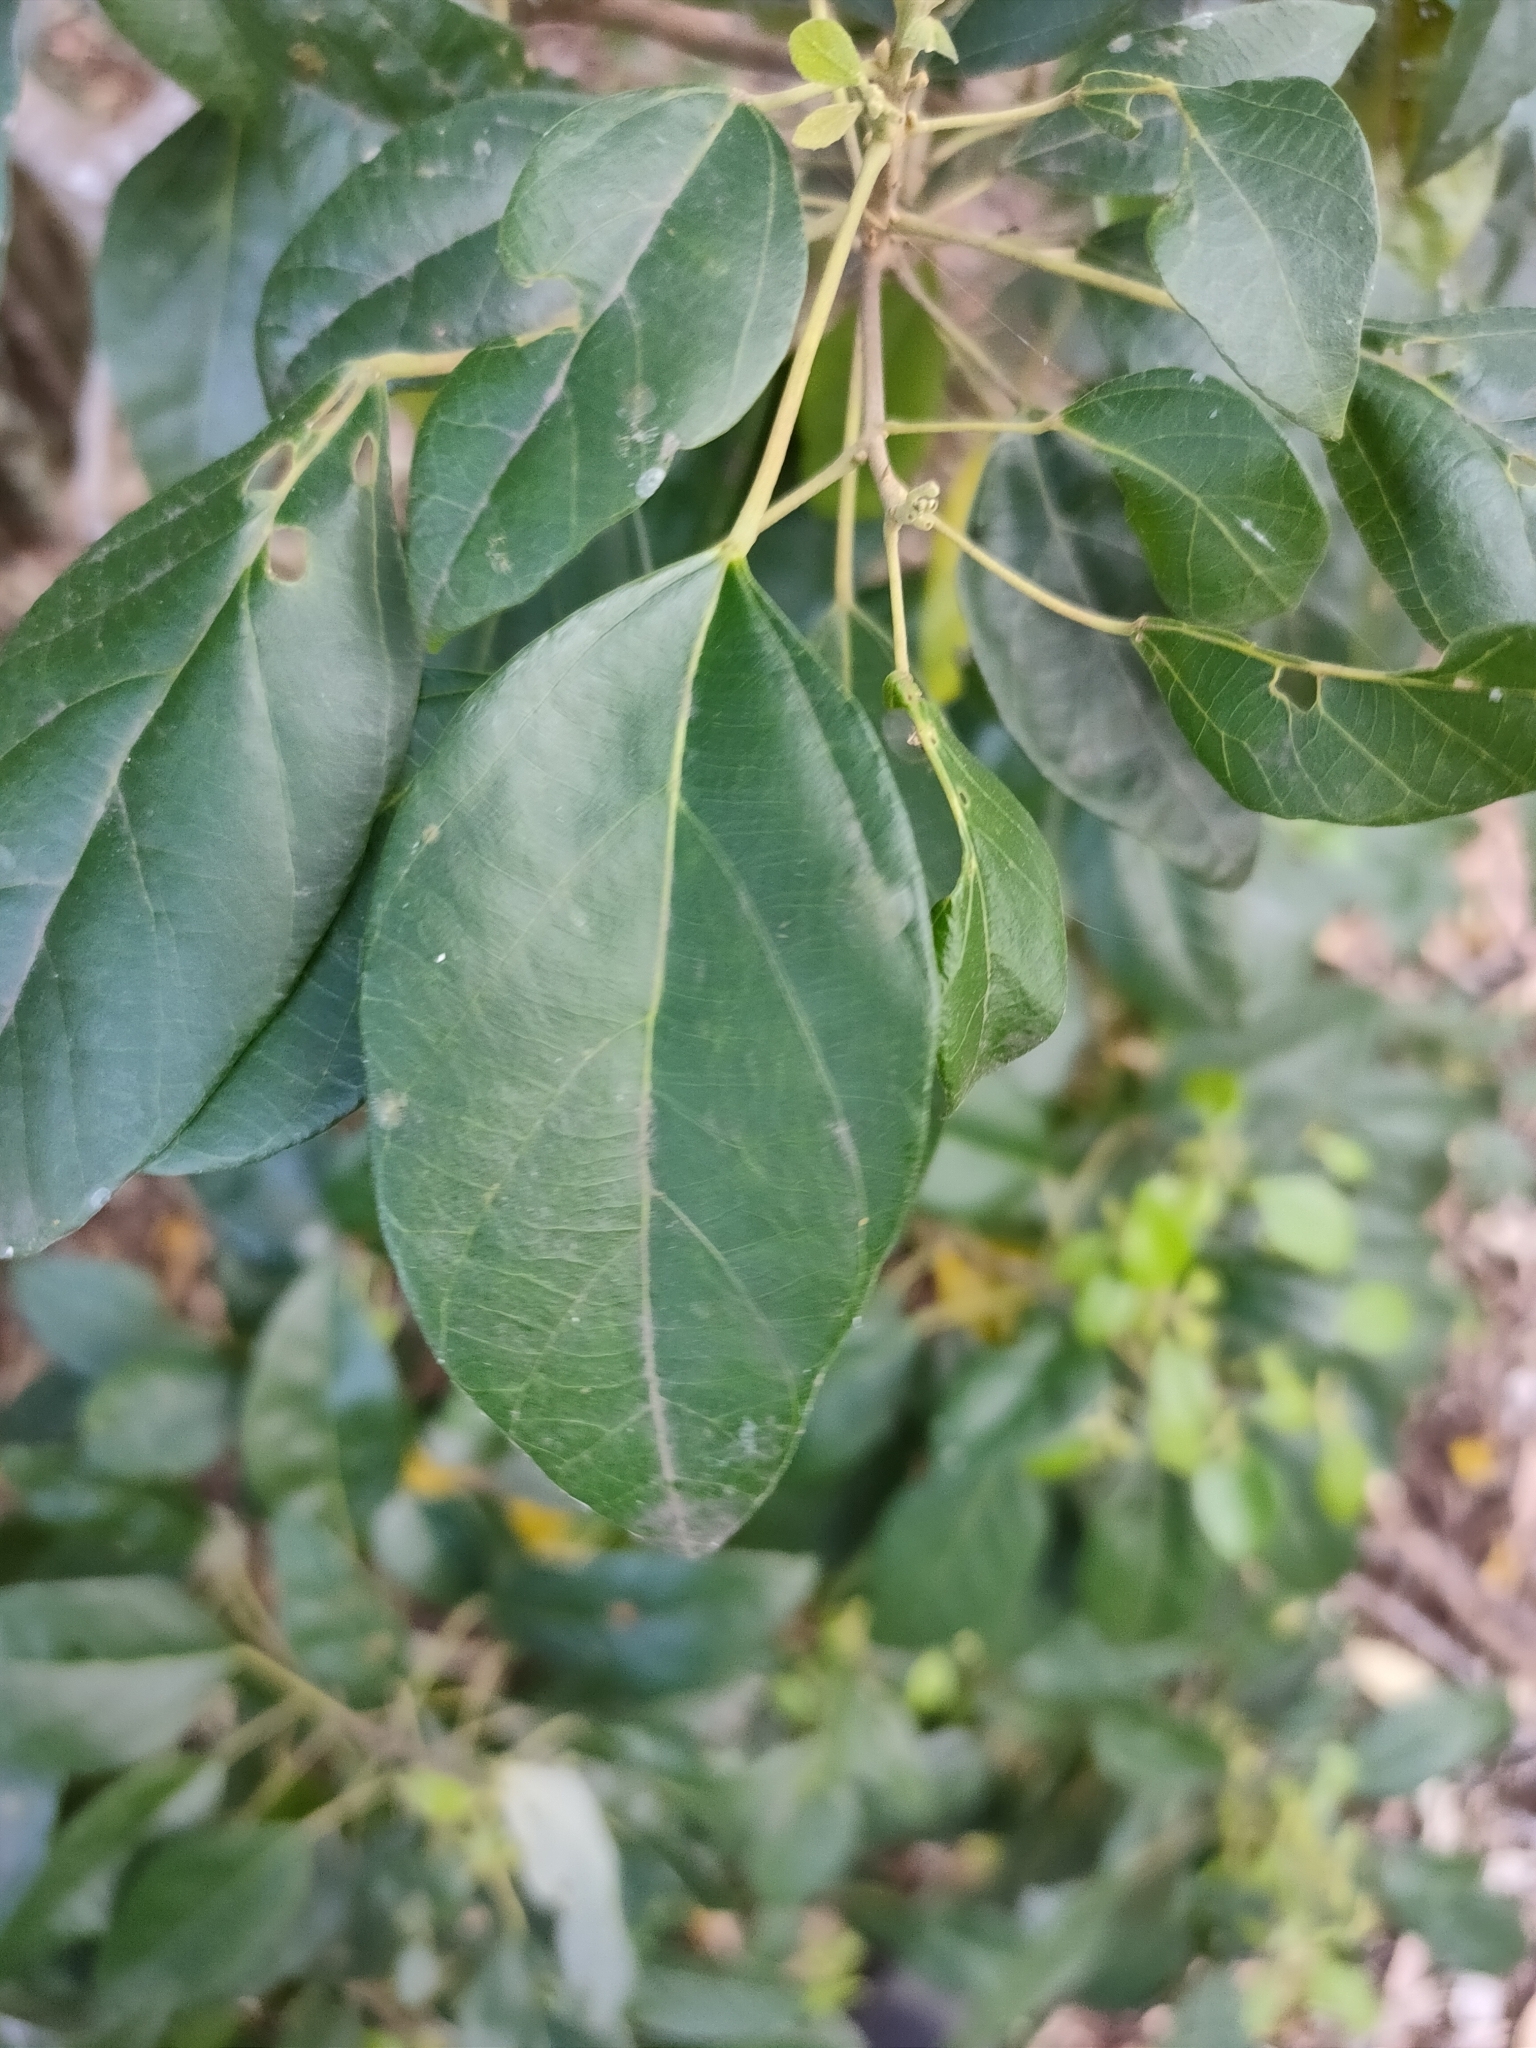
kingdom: Plantae
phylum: Tracheophyta
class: Magnoliopsida
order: Malpighiales
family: Euphorbiaceae
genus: Mallotus
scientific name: Mallotus discolor
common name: White kamala
